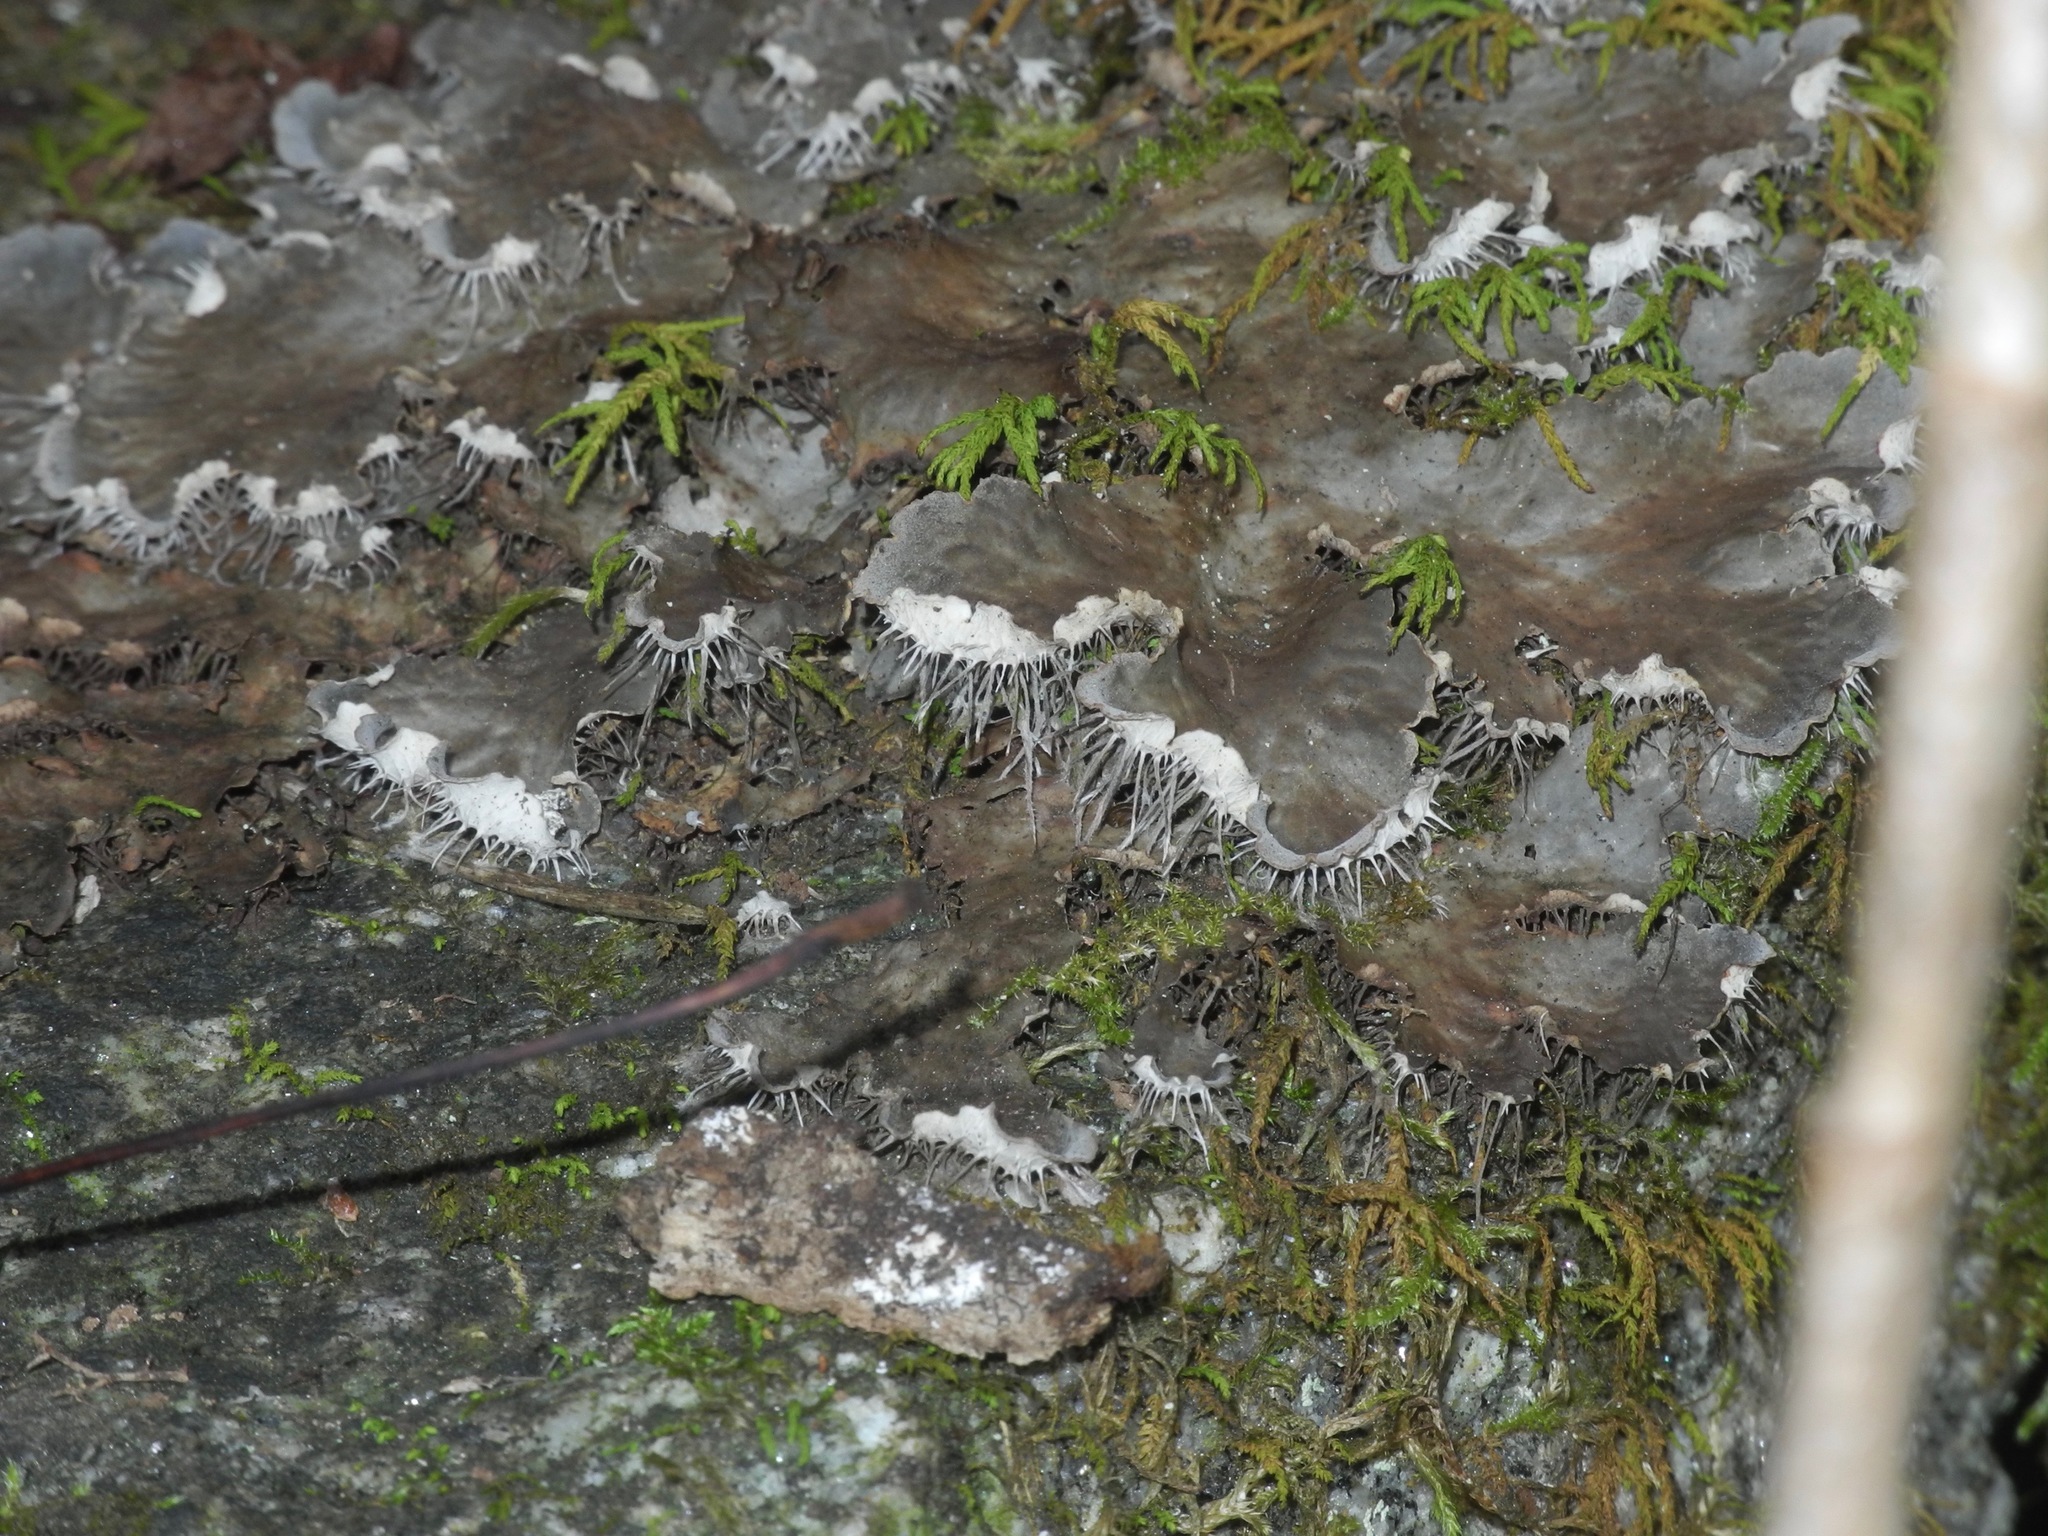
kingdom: Fungi
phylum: Ascomycota
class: Lecanoromycetes
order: Peltigerales
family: Peltigeraceae
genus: Peltigera
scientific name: Peltigera praetextata
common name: Scaly dog-lichen
